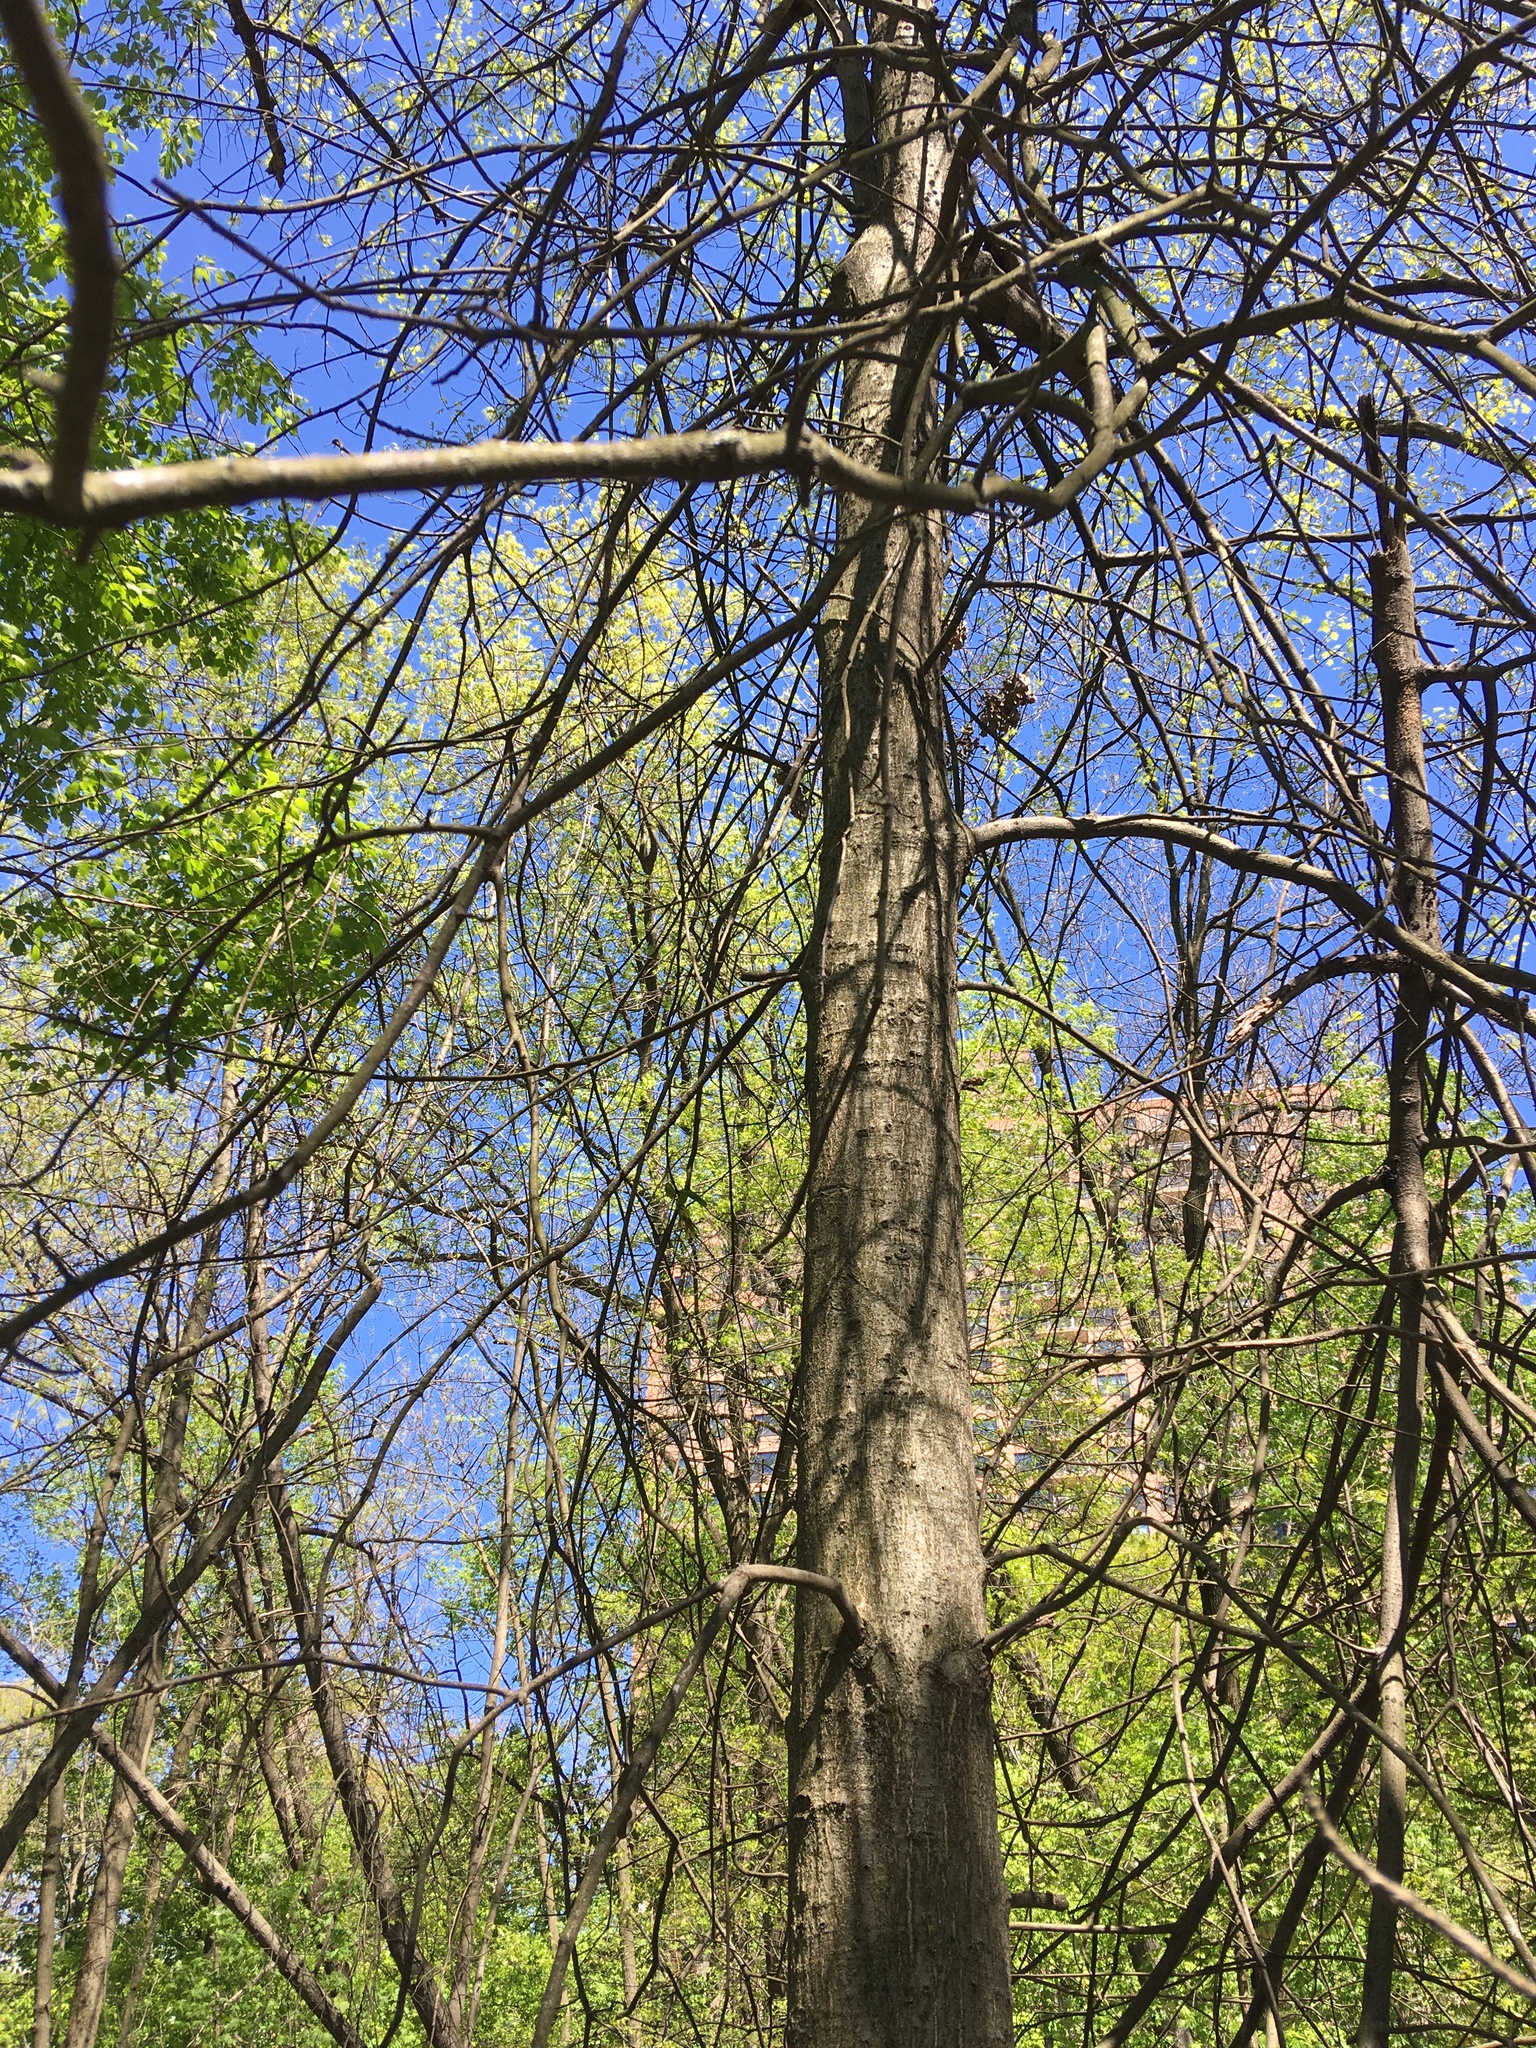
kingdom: Plantae
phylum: Tracheophyta
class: Magnoliopsida
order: Fagales
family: Fagaceae
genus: Quercus
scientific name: Quercus palustris
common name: Pin oak
